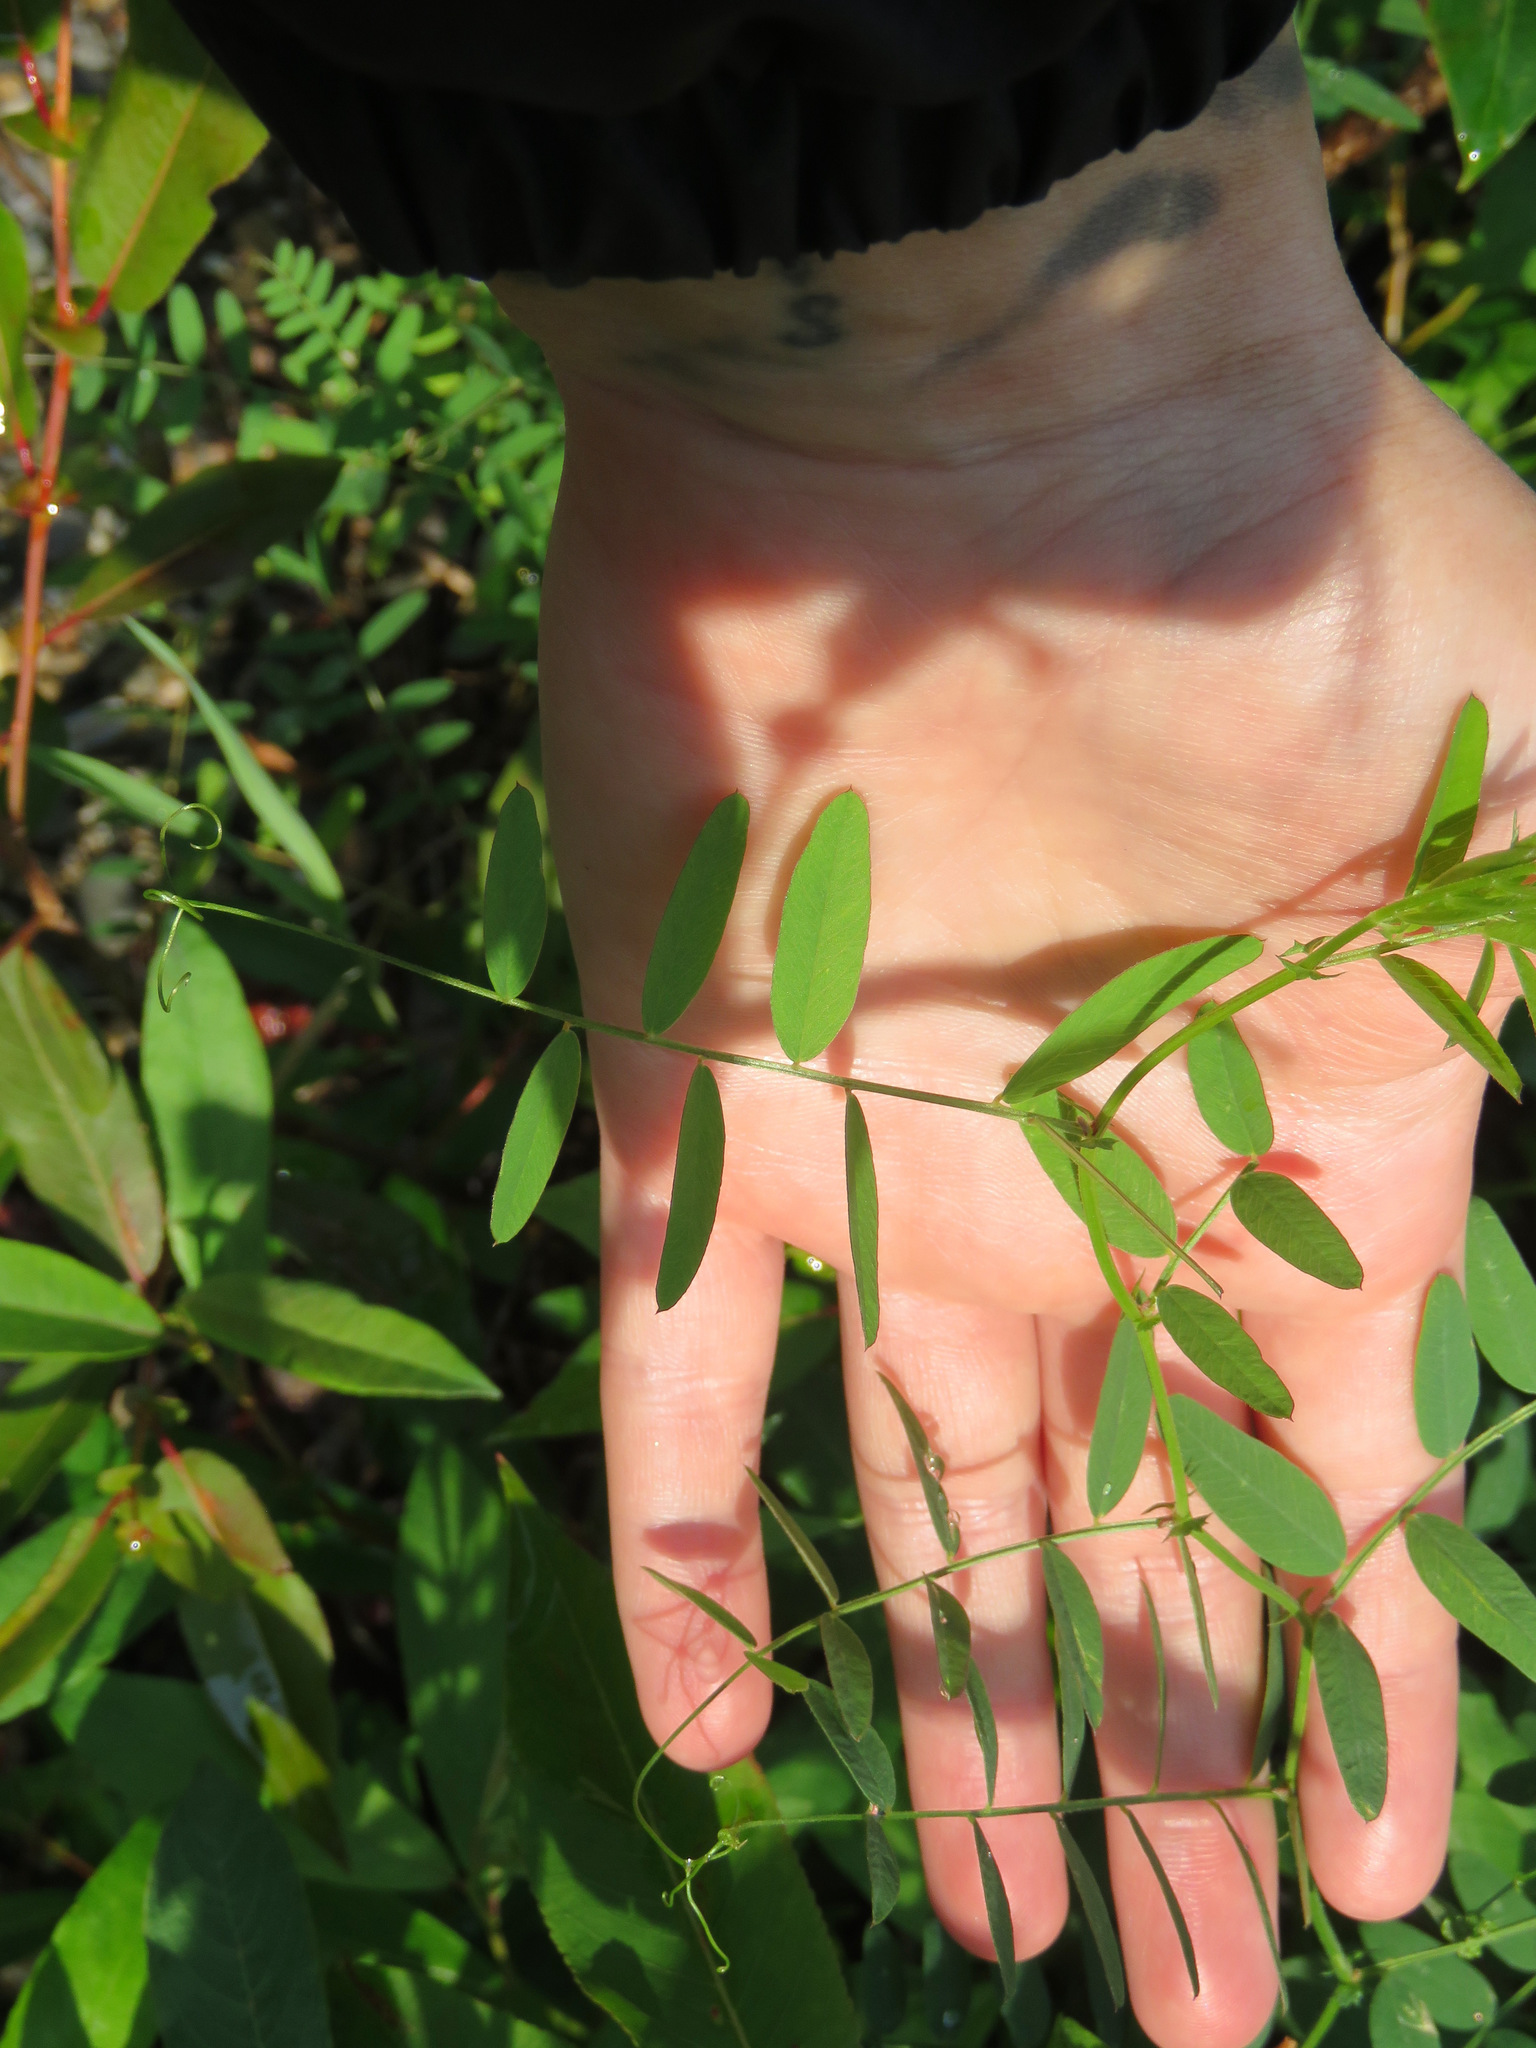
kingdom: Plantae
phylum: Tracheophyta
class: Magnoliopsida
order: Fabales
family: Fabaceae
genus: Vicia
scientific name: Vicia americana
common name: American vetch
